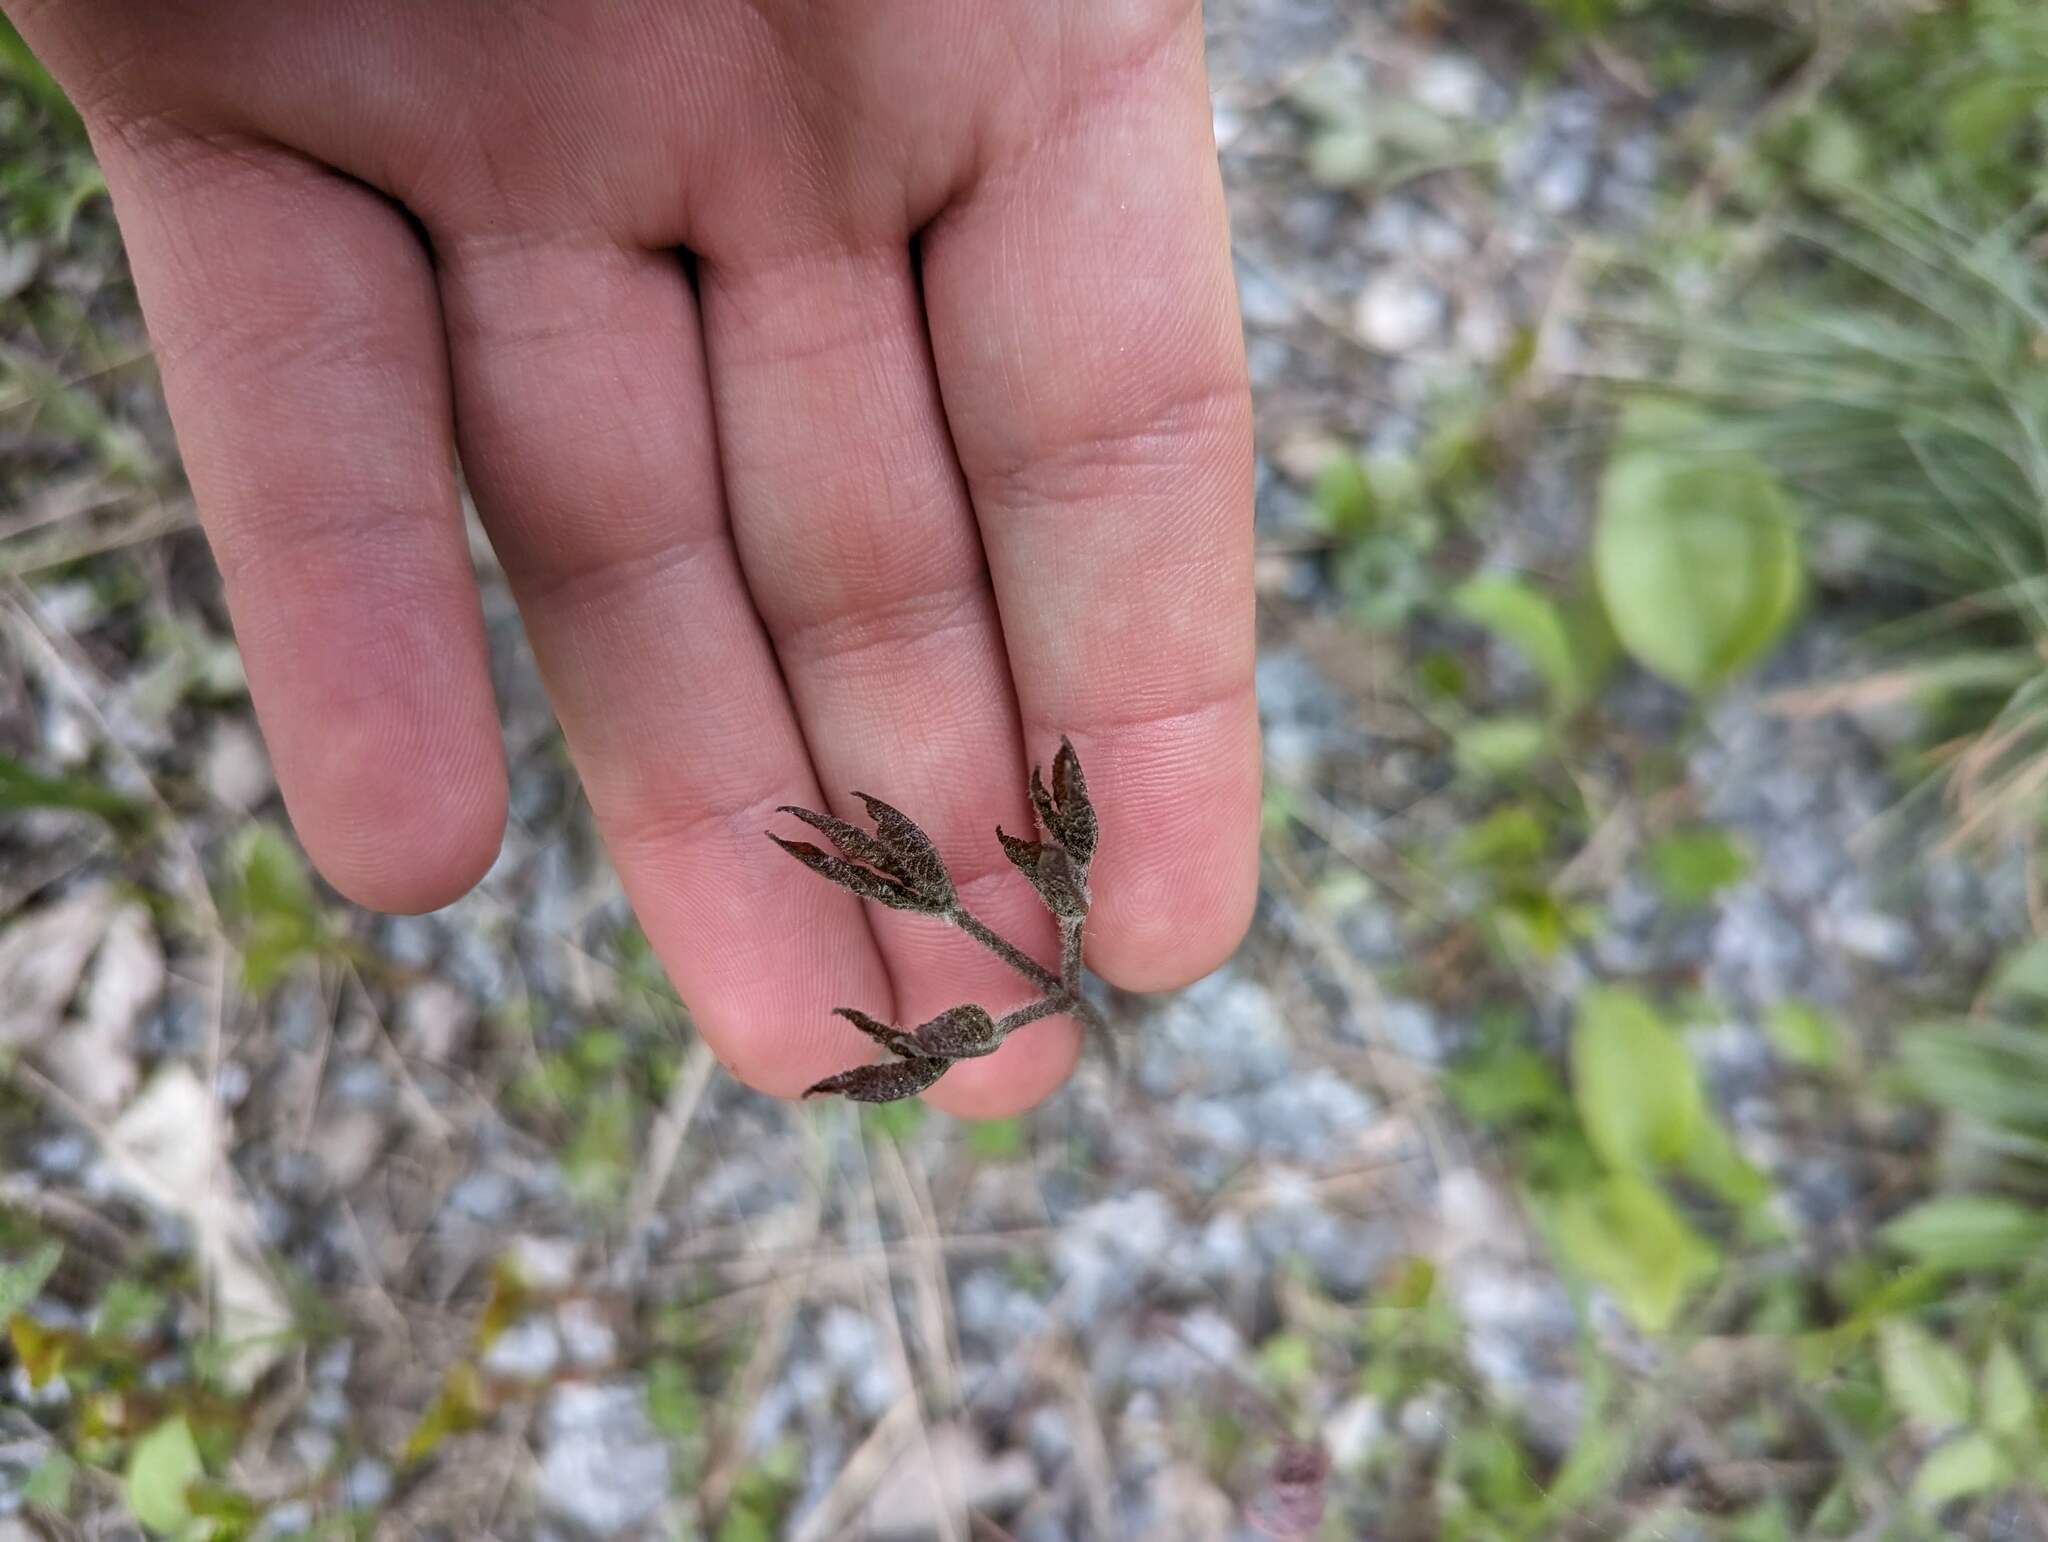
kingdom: Plantae
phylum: Tracheophyta
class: Magnoliopsida
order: Apiales
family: Araliaceae
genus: Aralia
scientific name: Aralia nudicaulis
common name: Wild sarsaparilla
